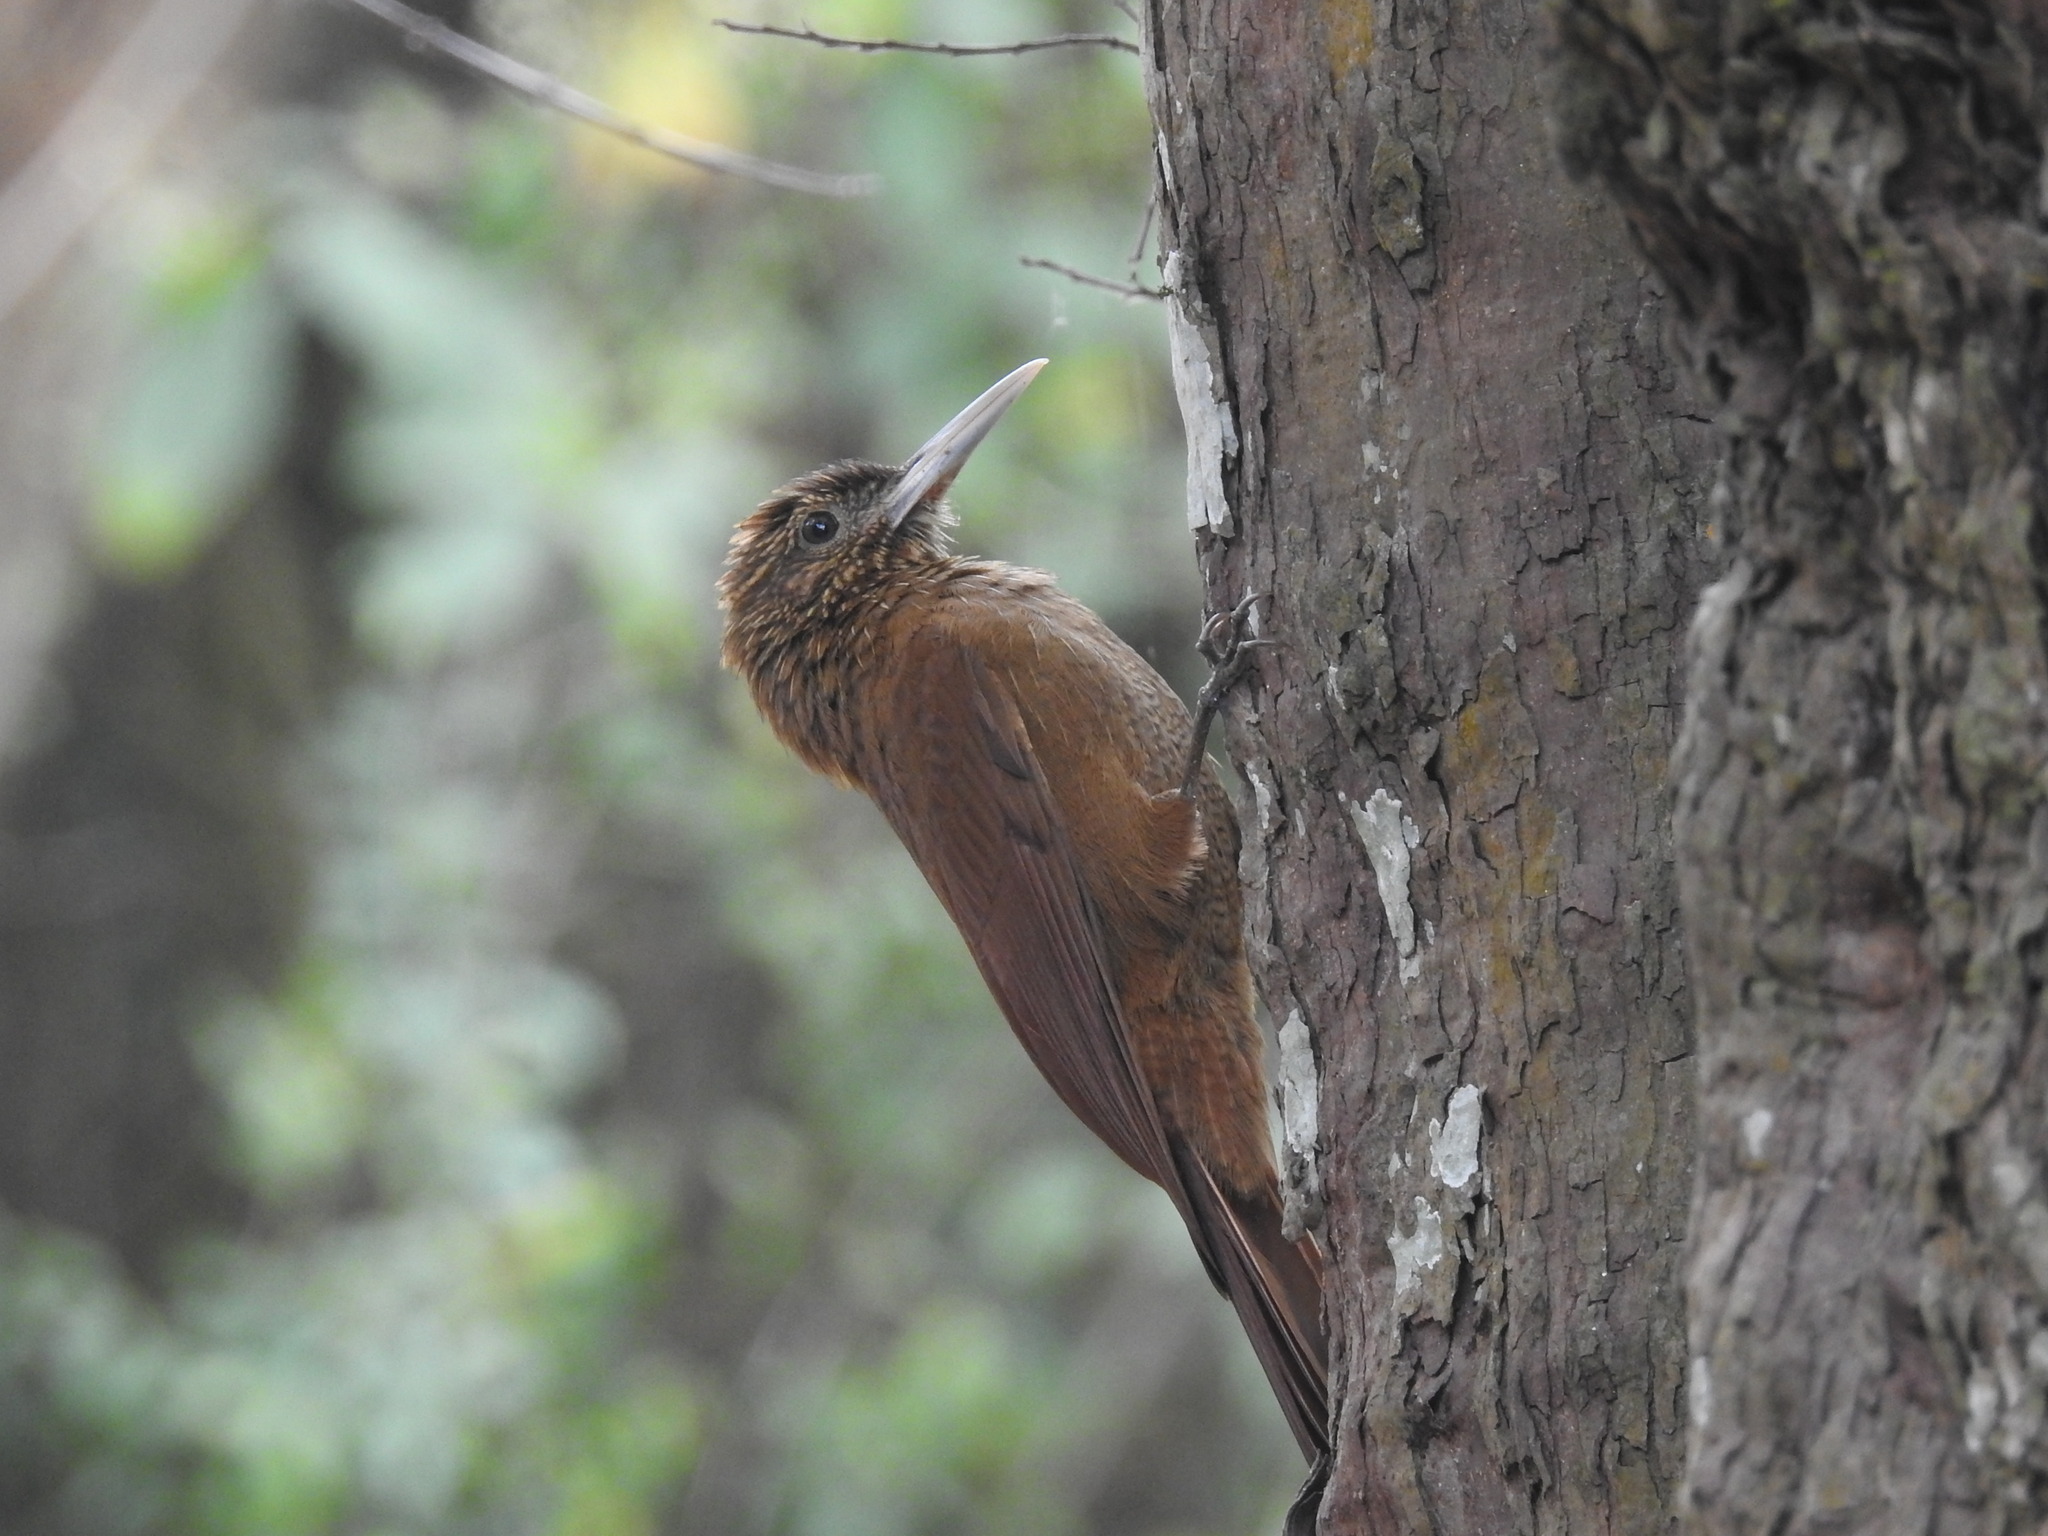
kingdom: Animalia
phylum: Chordata
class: Aves
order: Passeriformes
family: Furnariidae
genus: Dendrocolaptes
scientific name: Dendrocolaptes picumnus
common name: Black-banded woodcreeper
